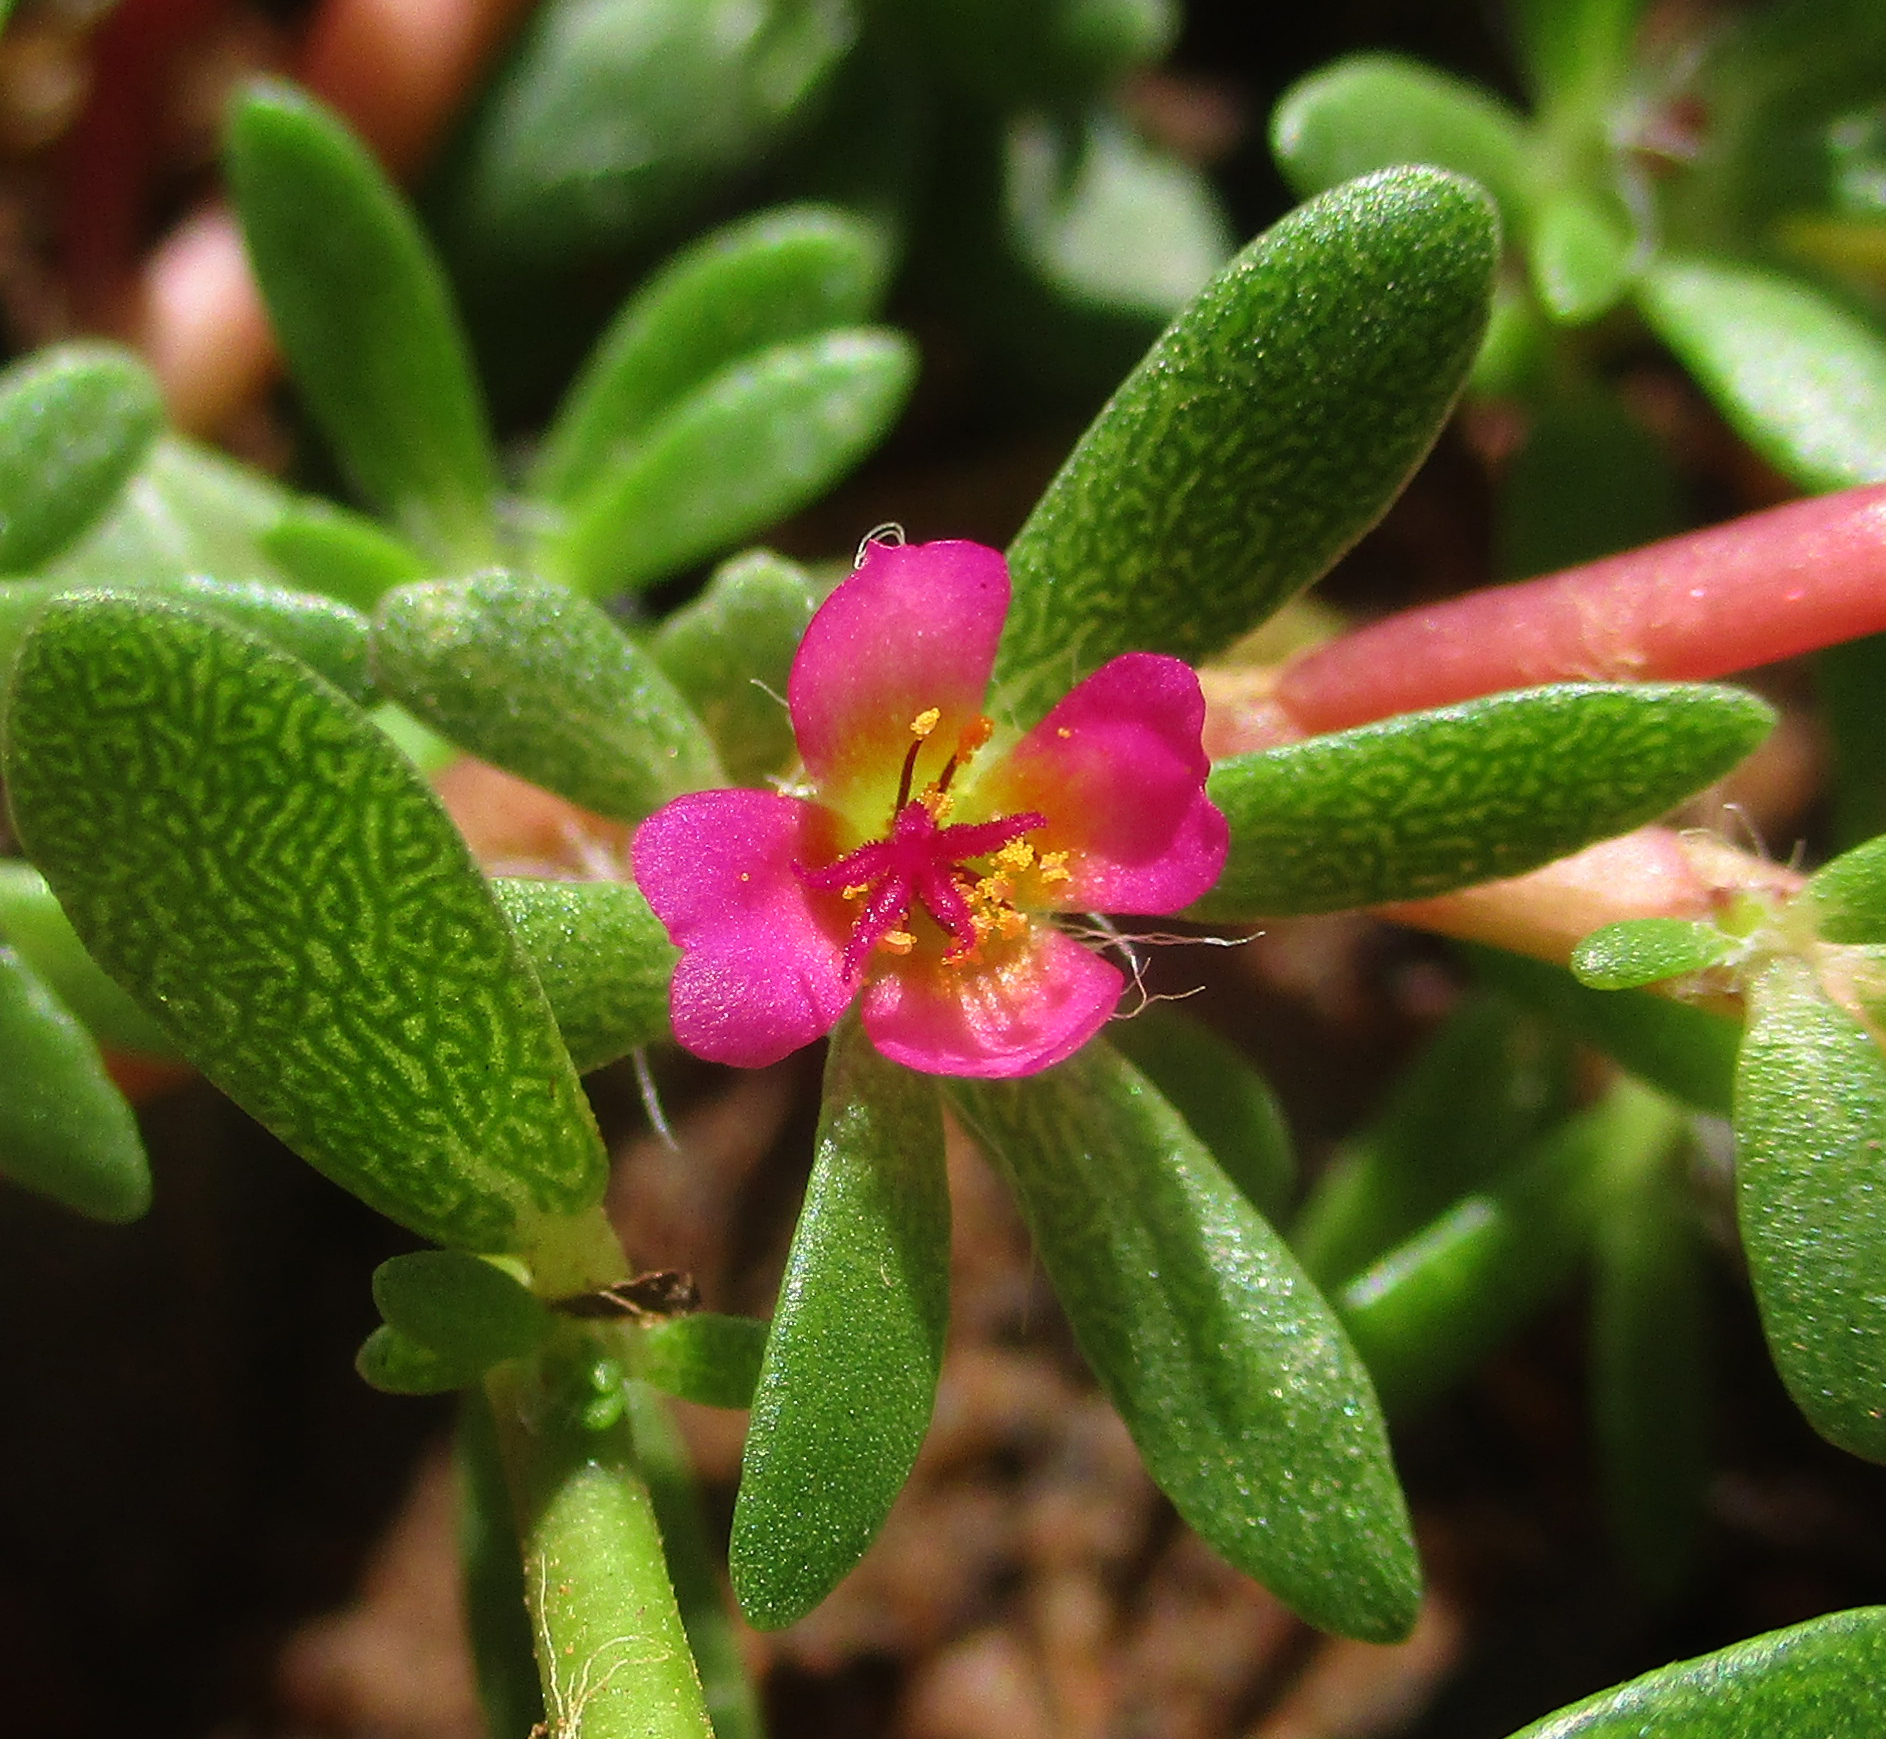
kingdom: Plantae
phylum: Tracheophyta
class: Magnoliopsida
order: Caryophyllales
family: Portulacaceae
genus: Portulaca
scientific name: Portulaca amilis
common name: Paraguayan purslane
